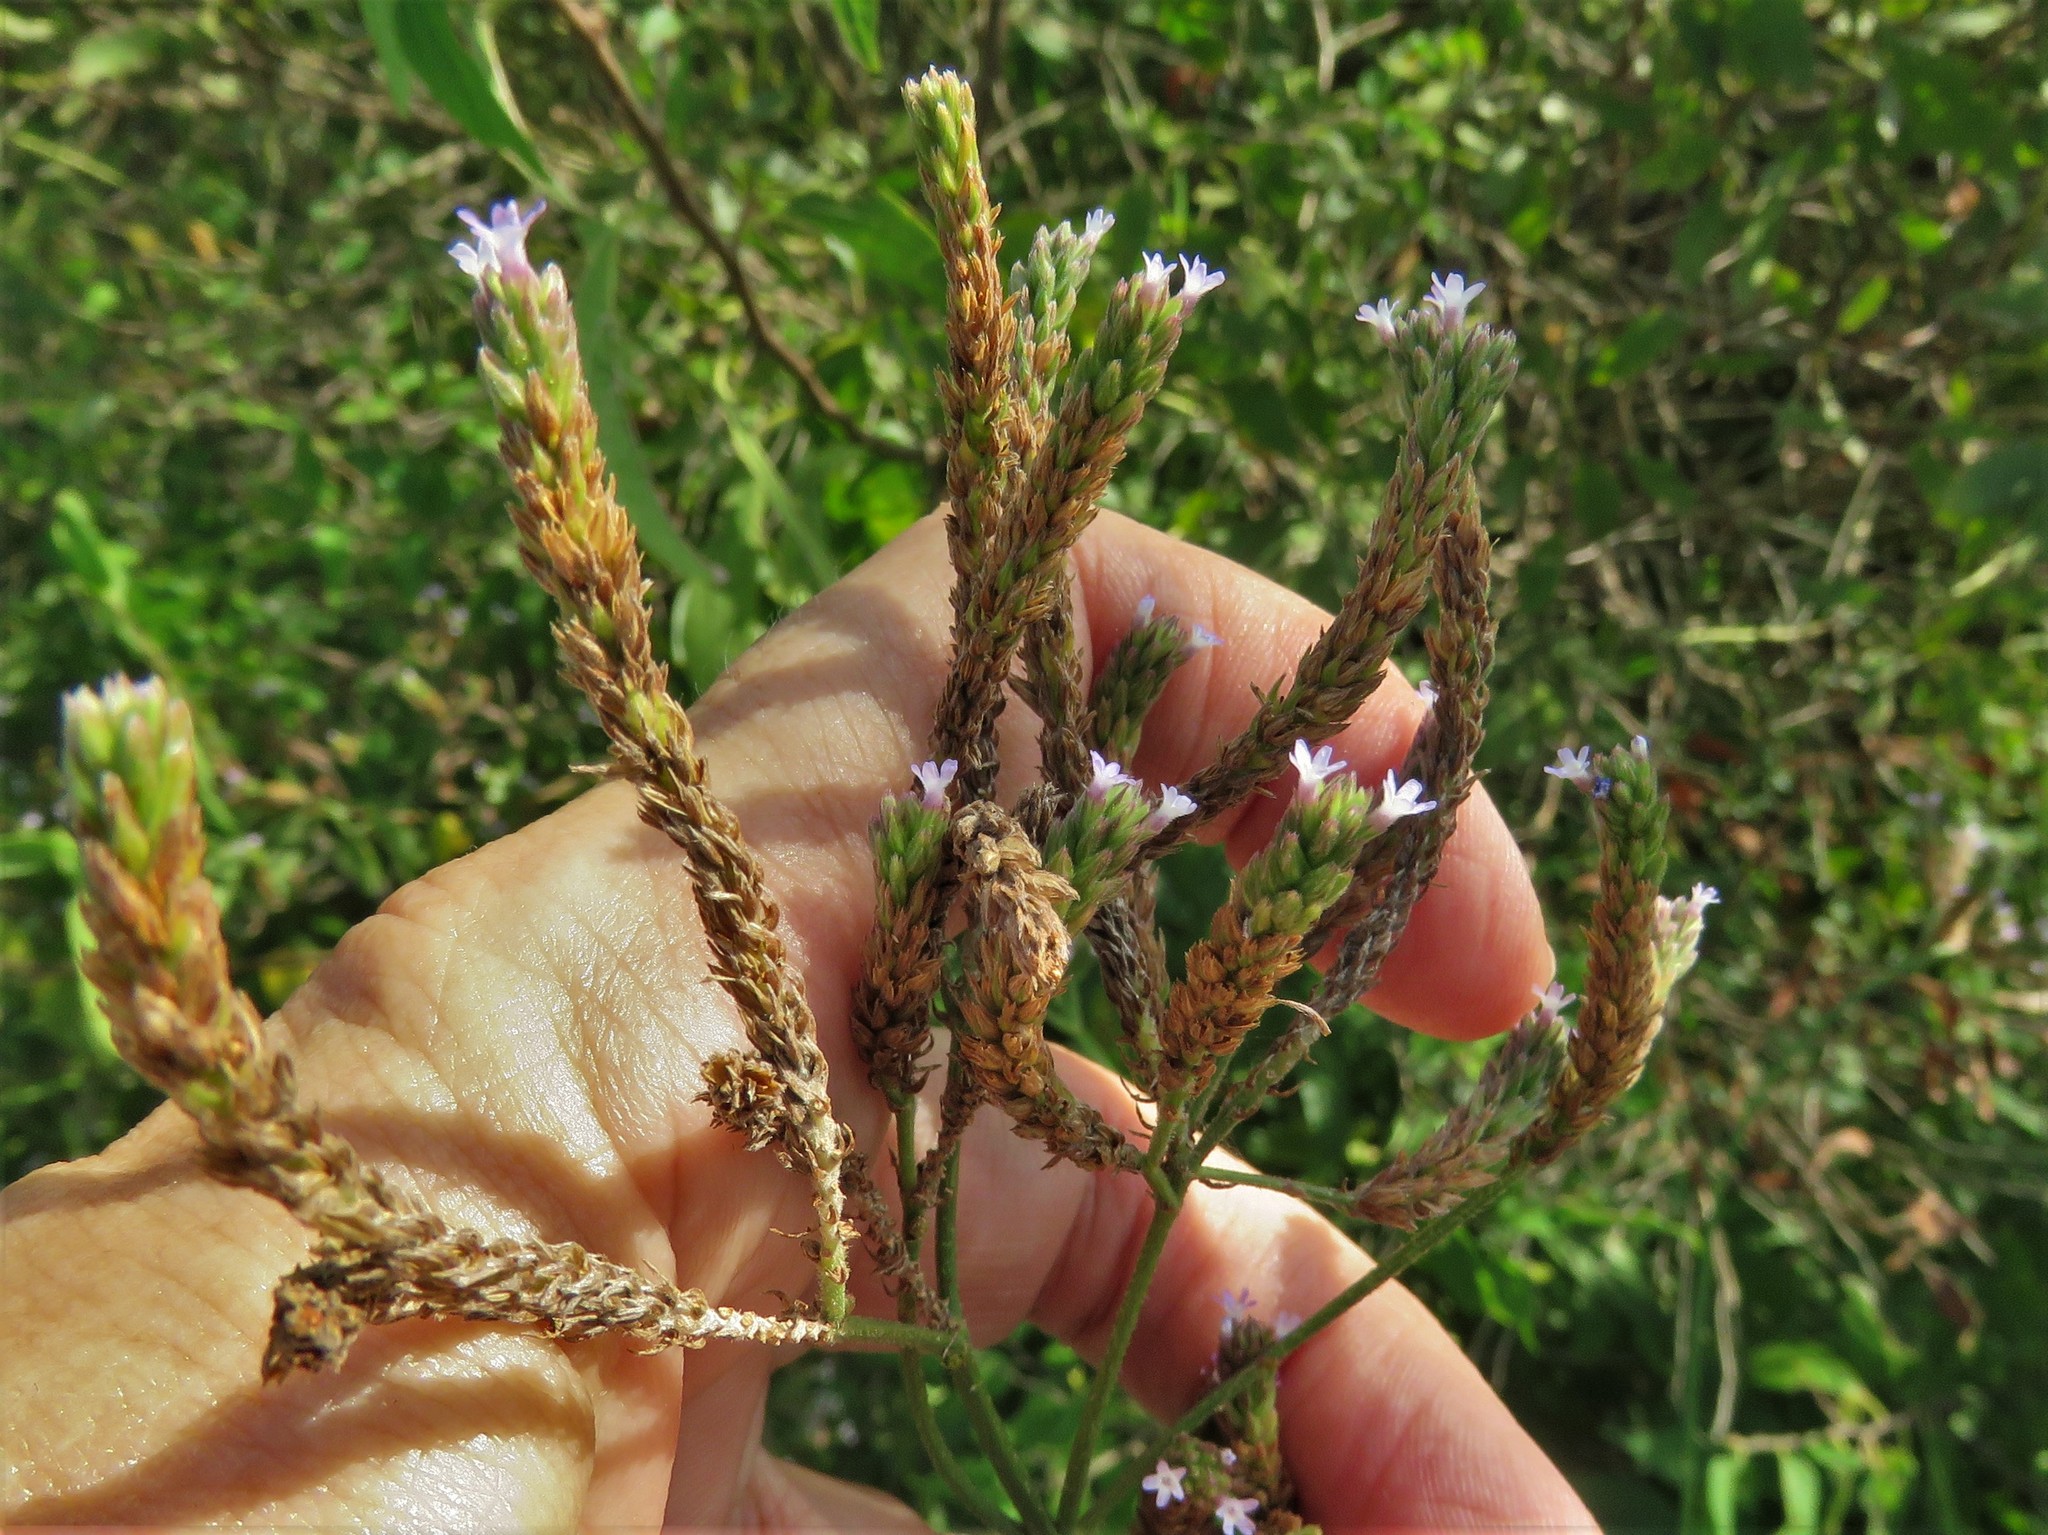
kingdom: Plantae
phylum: Tracheophyta
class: Magnoliopsida
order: Lamiales
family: Verbenaceae
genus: Verbena
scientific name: Verbena brasiliensis
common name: Brazilian vervain
